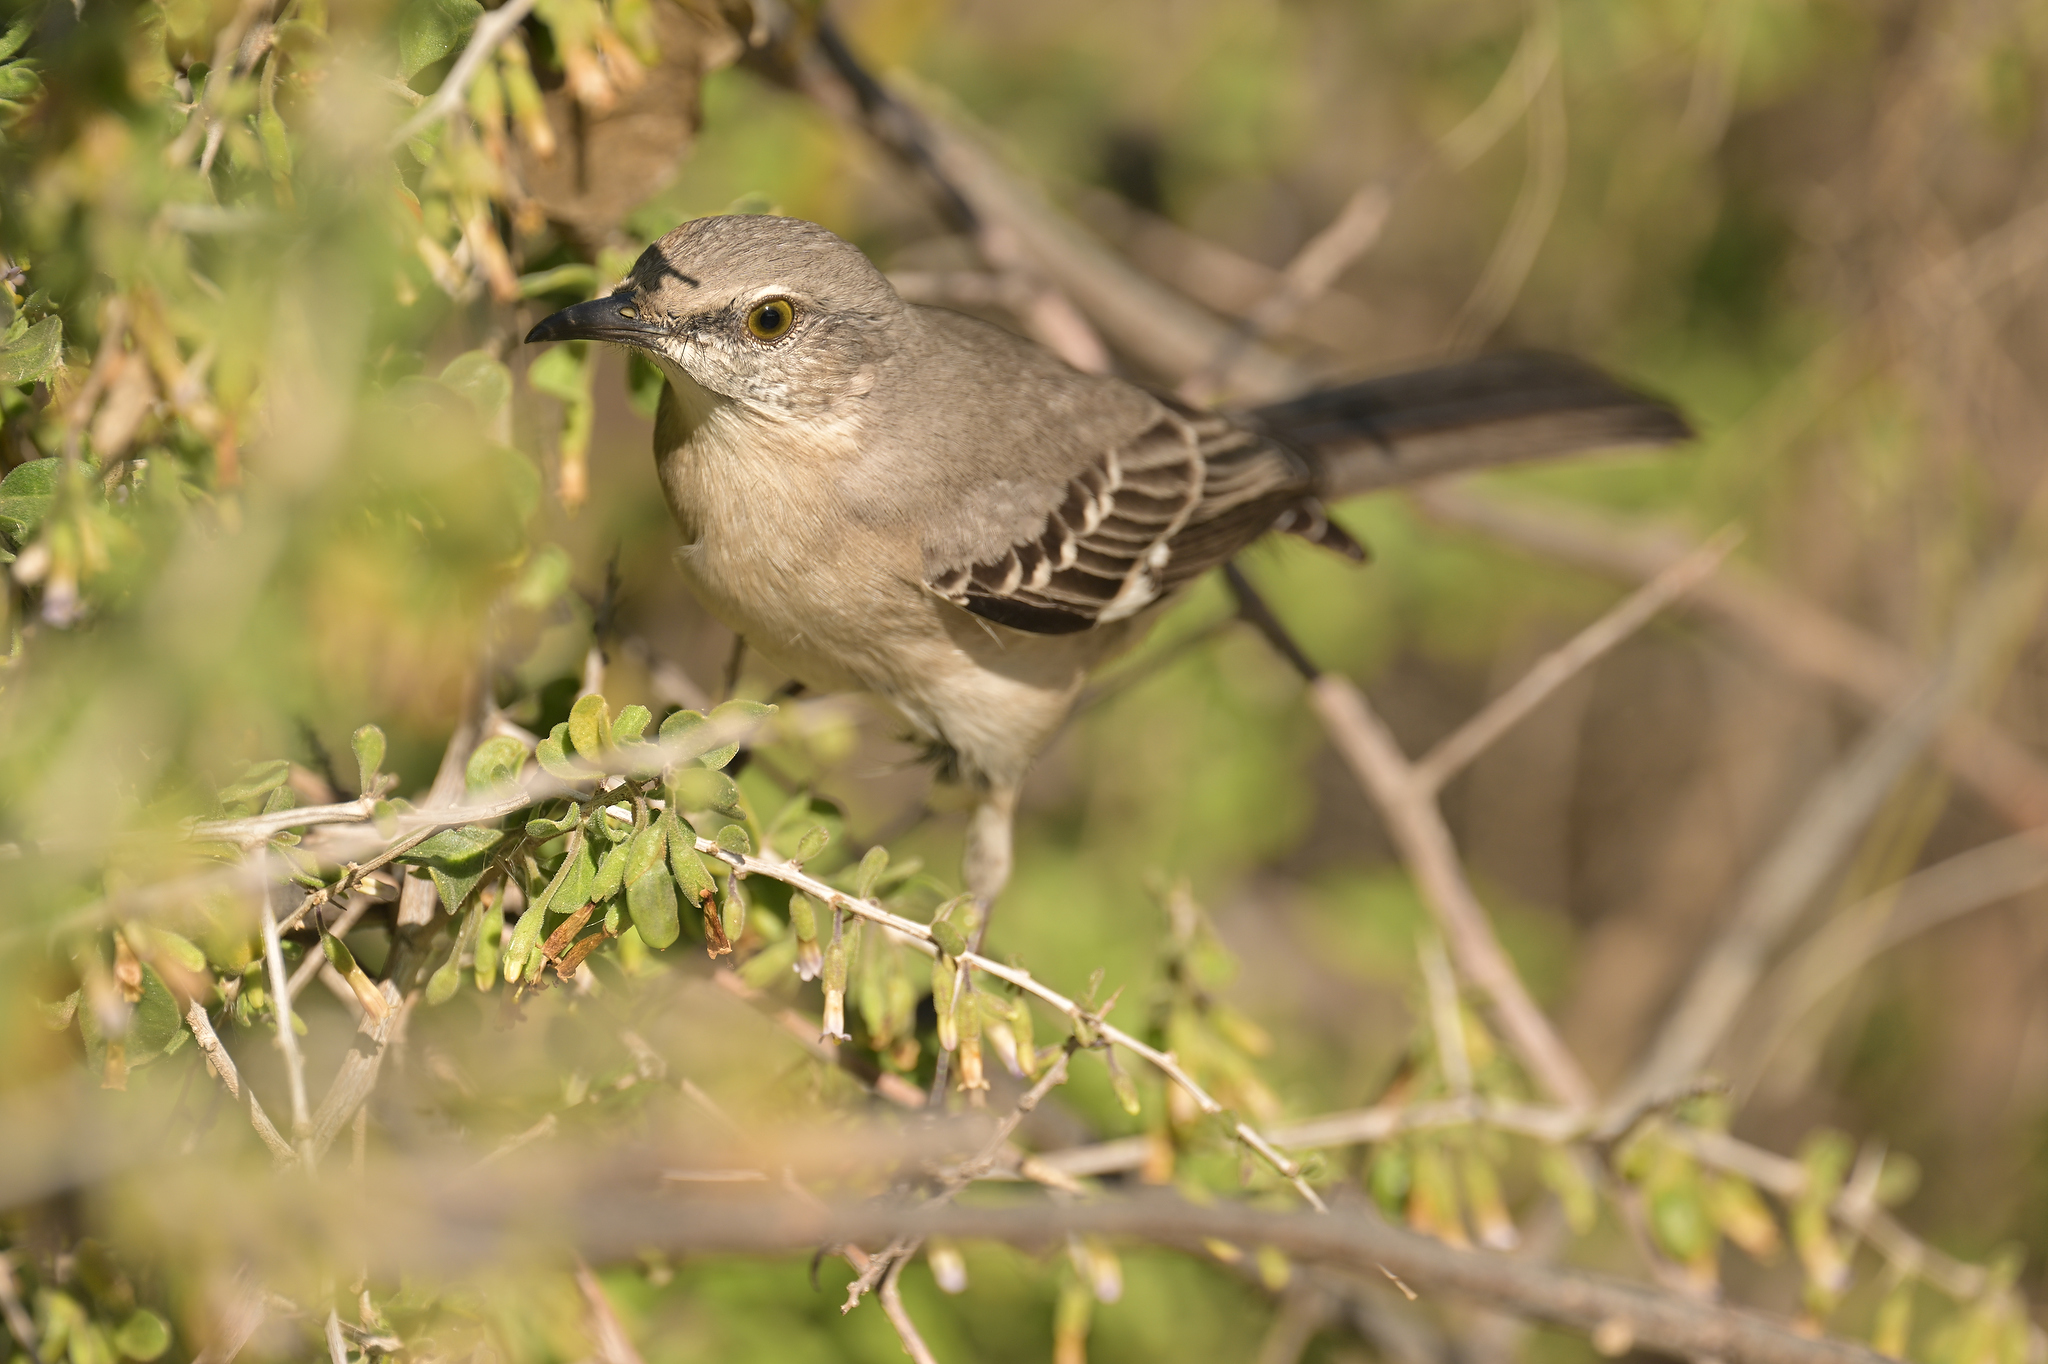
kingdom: Animalia
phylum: Chordata
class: Aves
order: Passeriformes
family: Mimidae
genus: Mimus
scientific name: Mimus polyglottos
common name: Northern mockingbird
